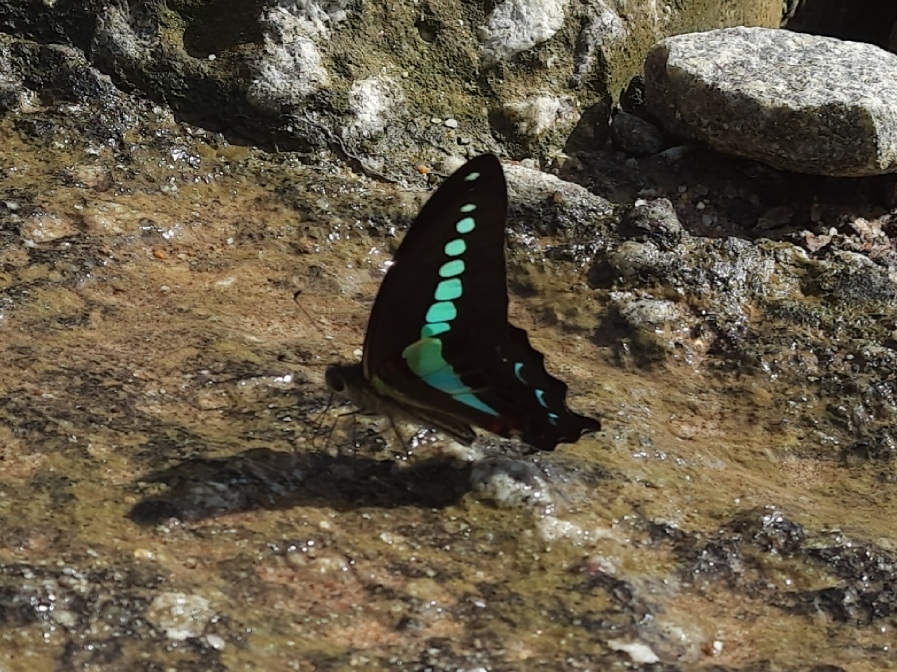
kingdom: Animalia
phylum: Arthropoda
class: Insecta
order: Lepidoptera
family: Papilionidae
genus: Graphium
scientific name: Graphium
